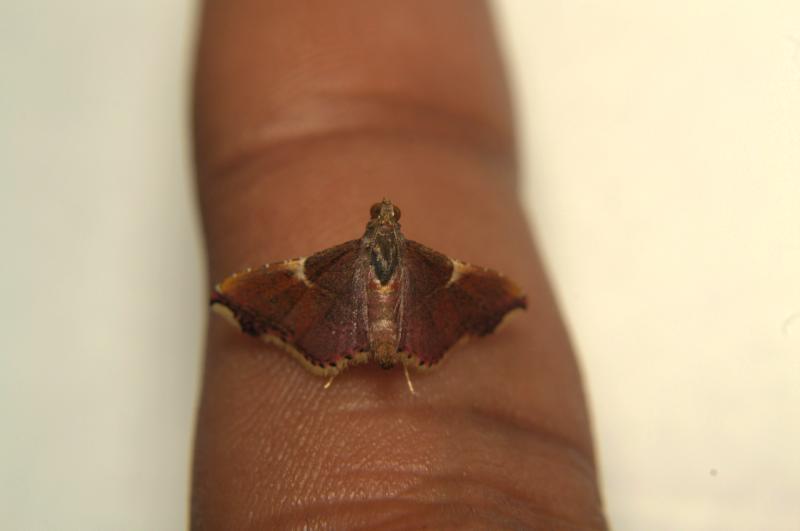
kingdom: Animalia
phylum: Arthropoda
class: Insecta
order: Lepidoptera
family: Pyralidae
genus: Endotricha
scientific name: Endotricha mesenterialis
